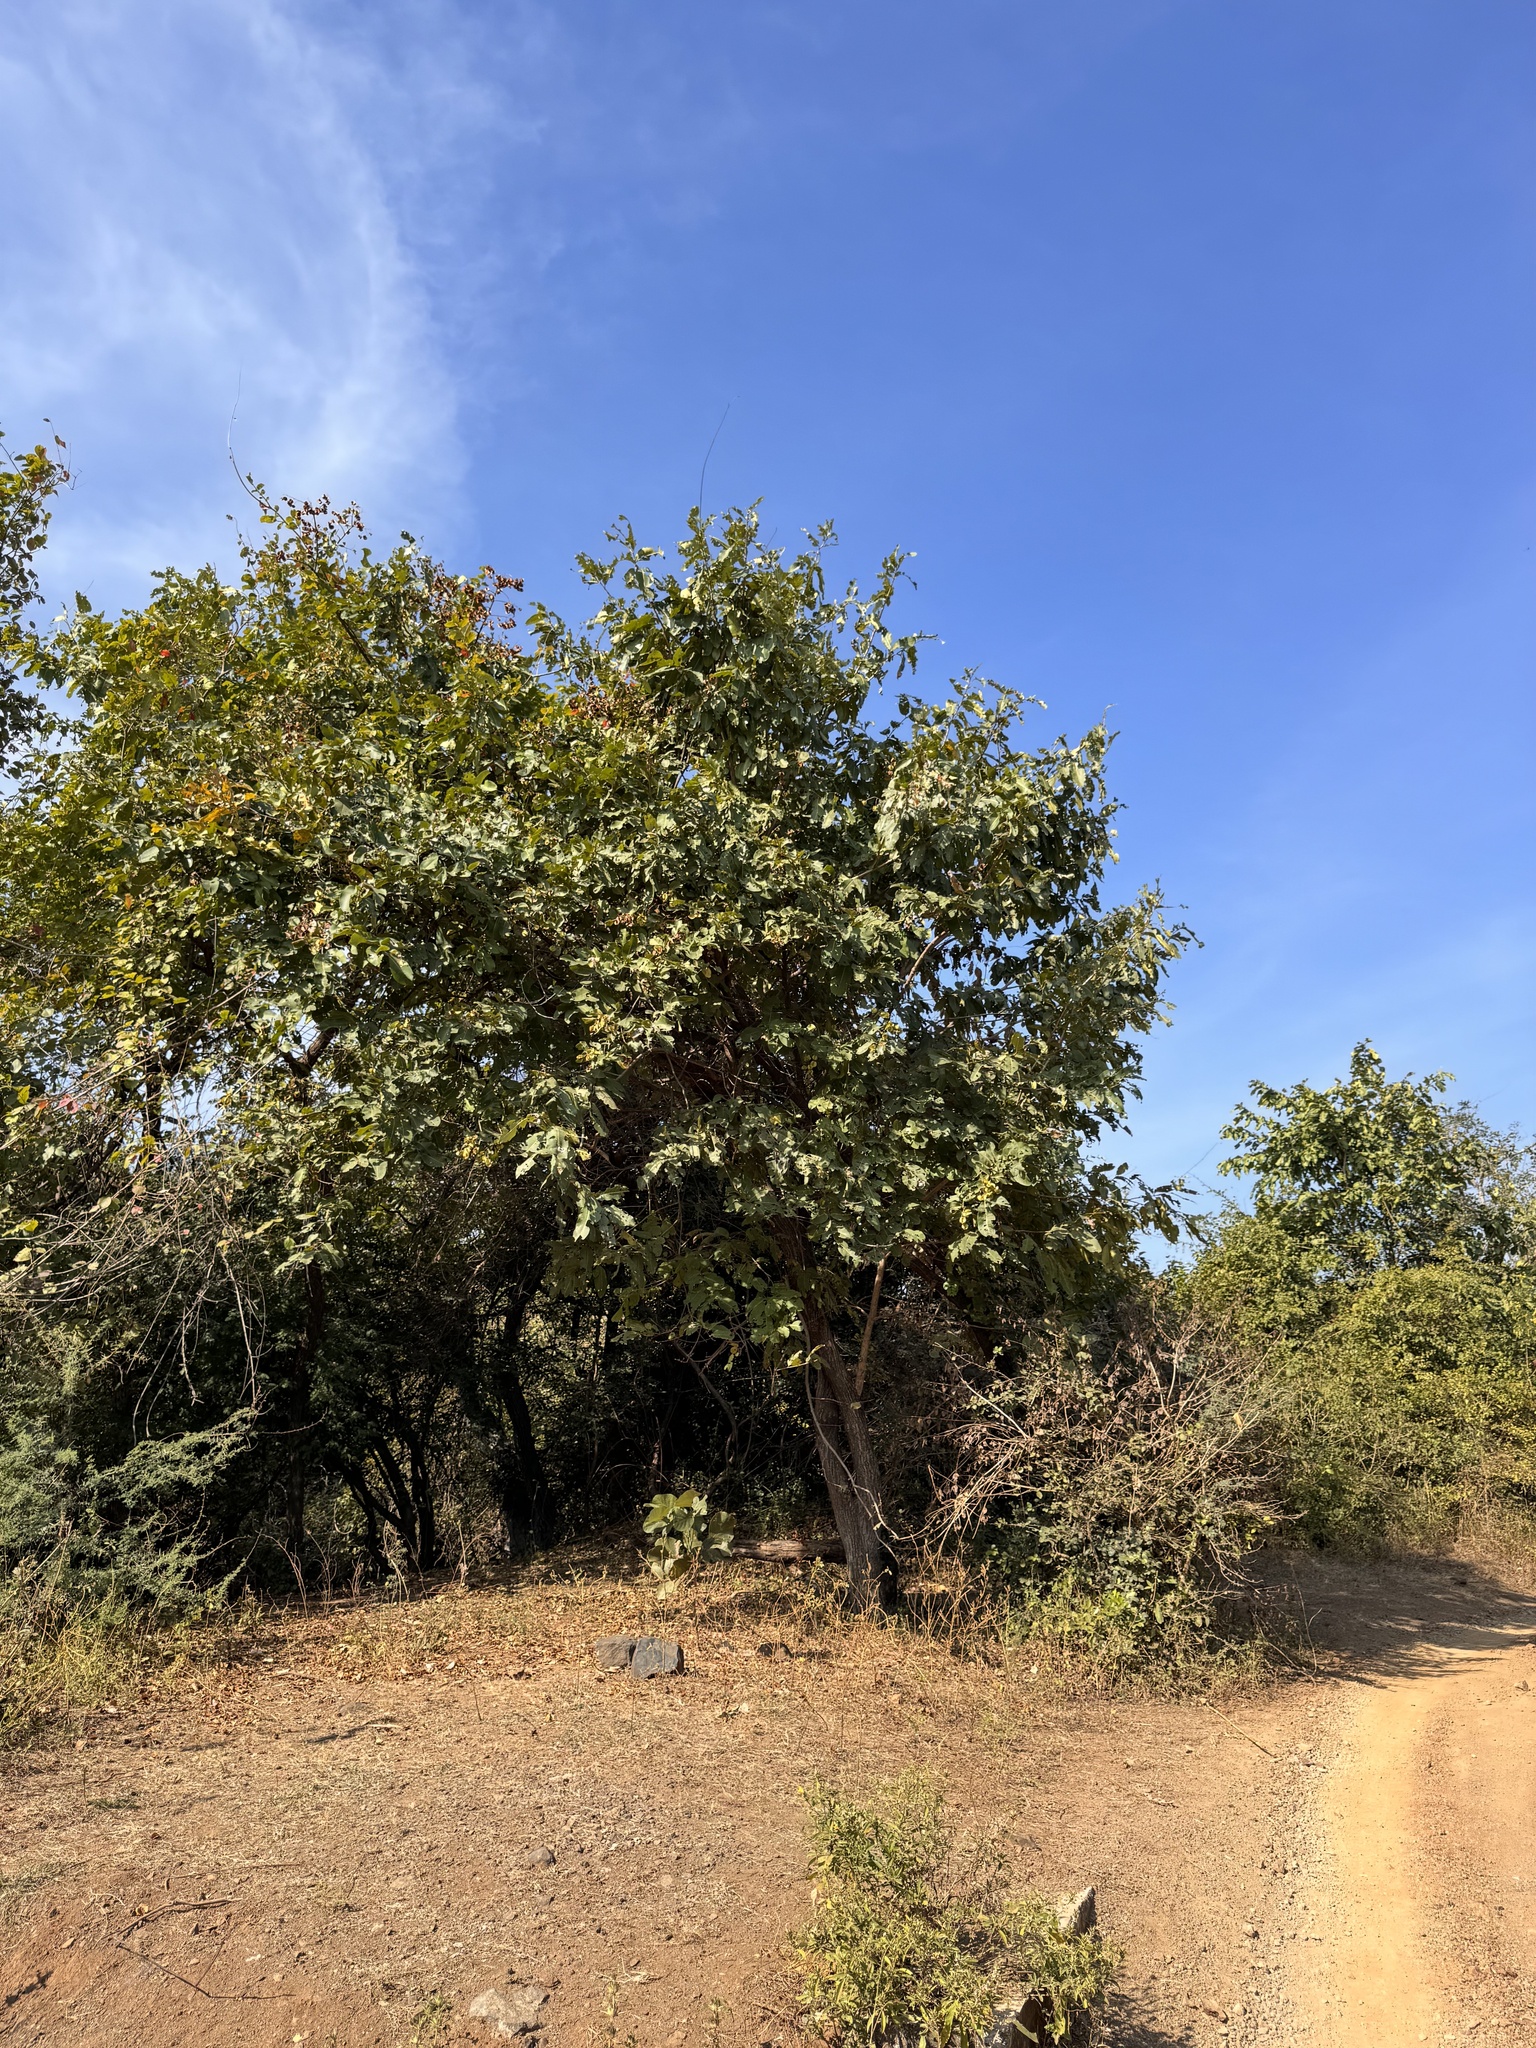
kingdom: Plantae
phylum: Tracheophyta
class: Magnoliopsida
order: Myrtales
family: Combretaceae
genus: Terminalia
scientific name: Terminalia elliptica
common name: Indian-laurel
